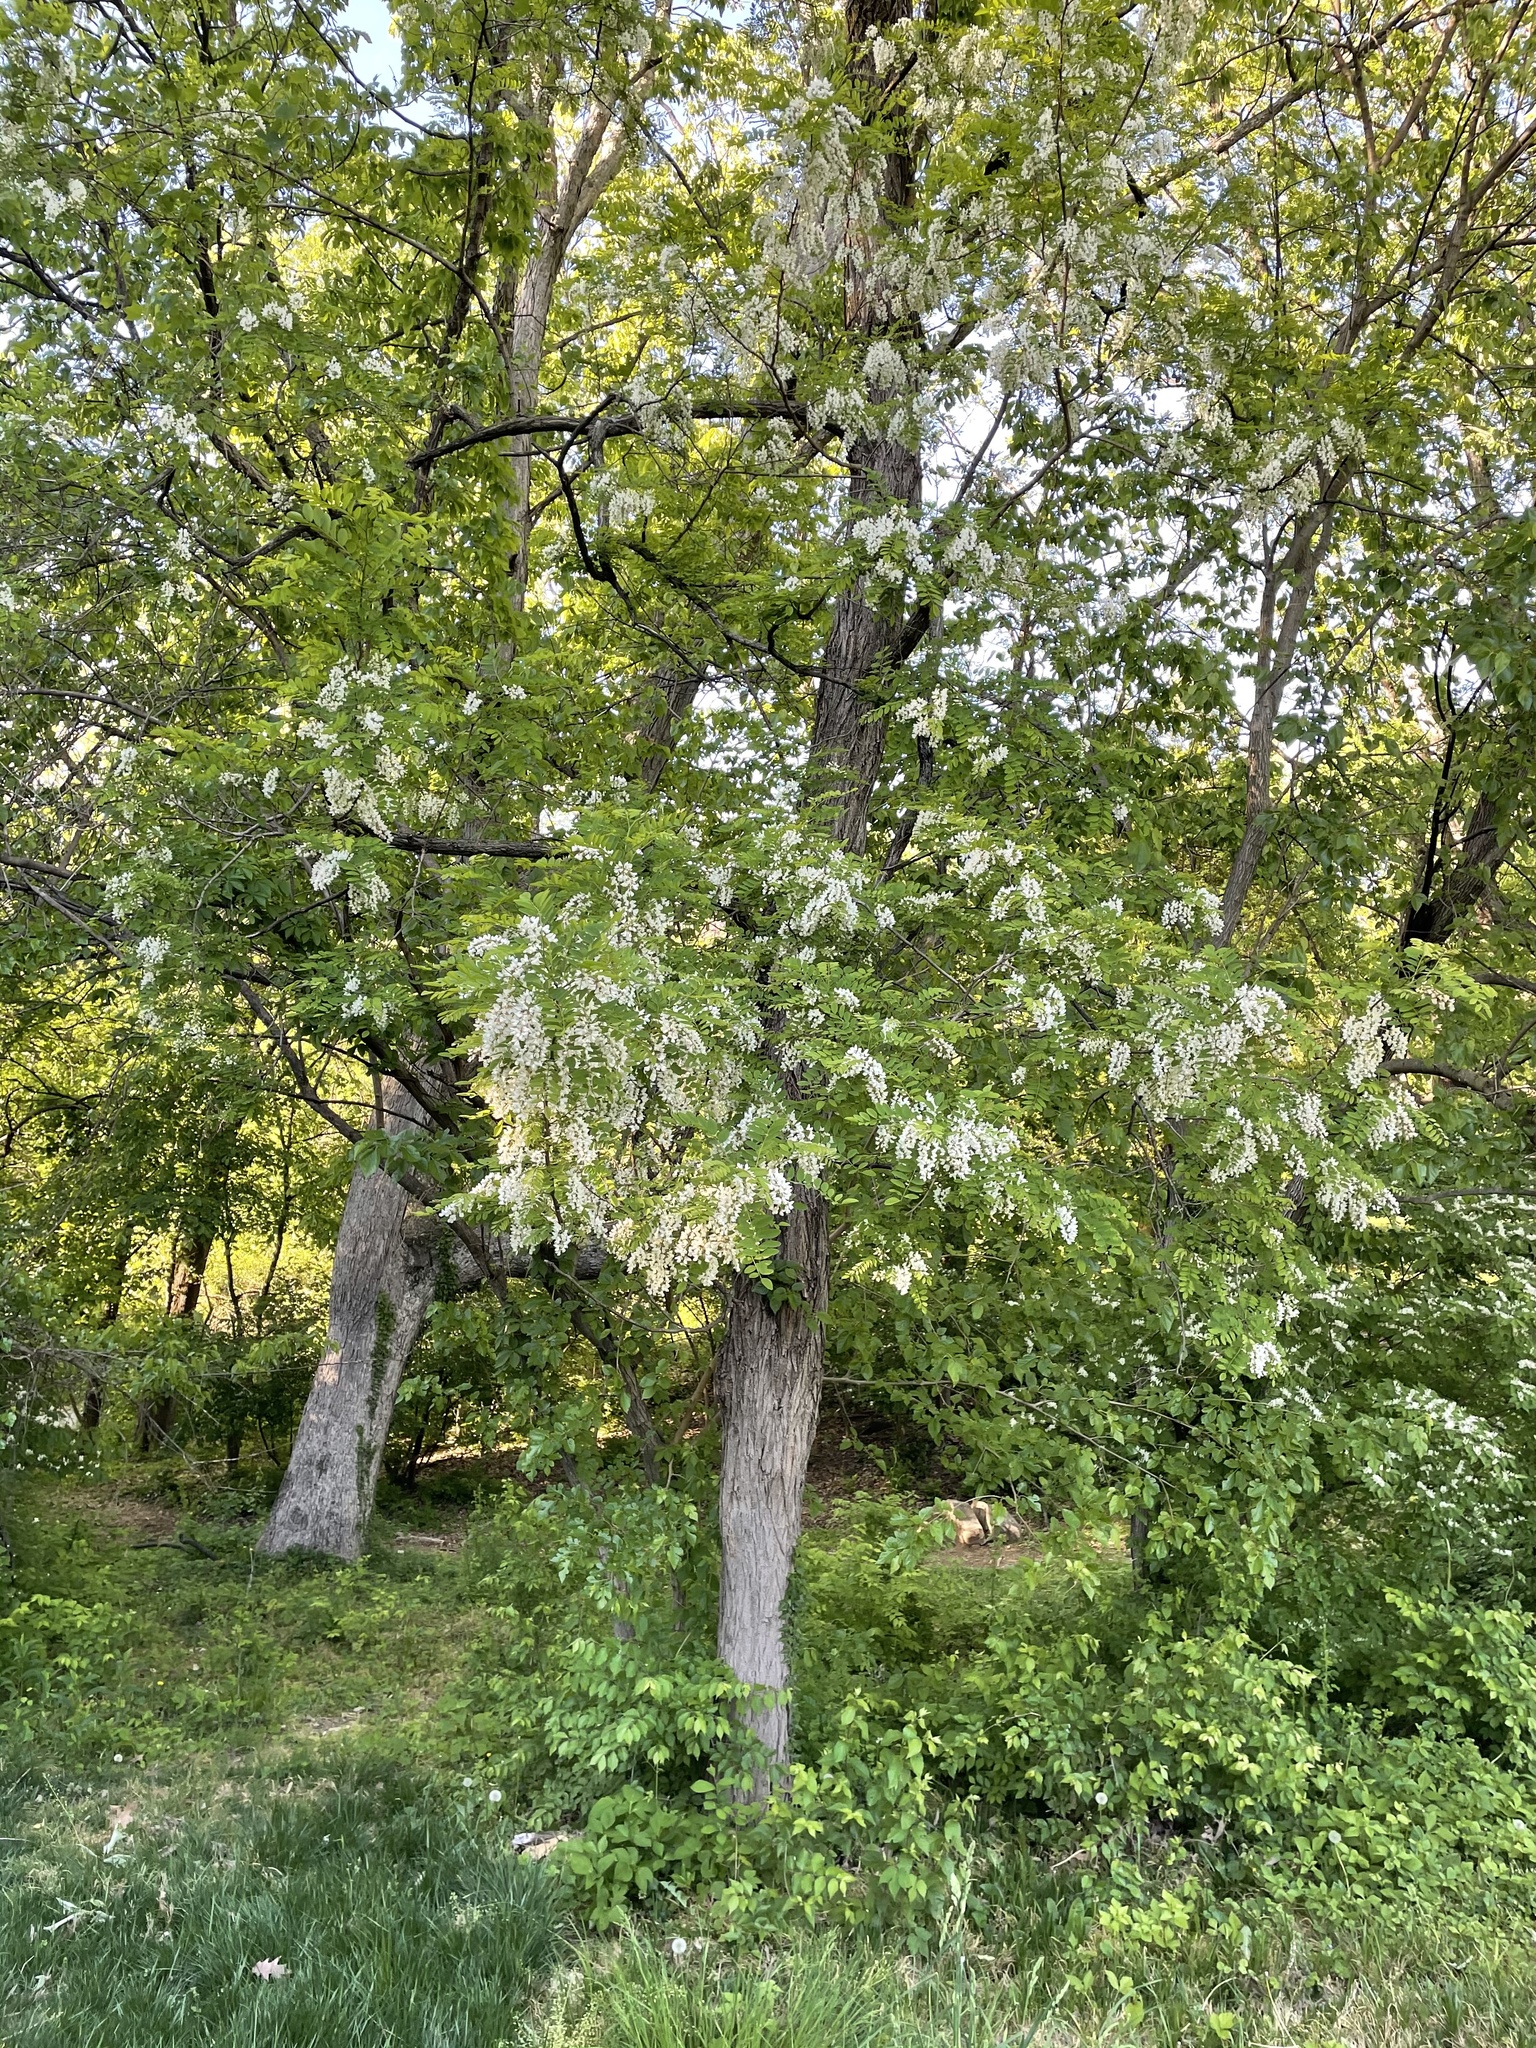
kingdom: Plantae
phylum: Tracheophyta
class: Magnoliopsida
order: Fabales
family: Fabaceae
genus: Robinia
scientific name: Robinia pseudoacacia
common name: Black locust
